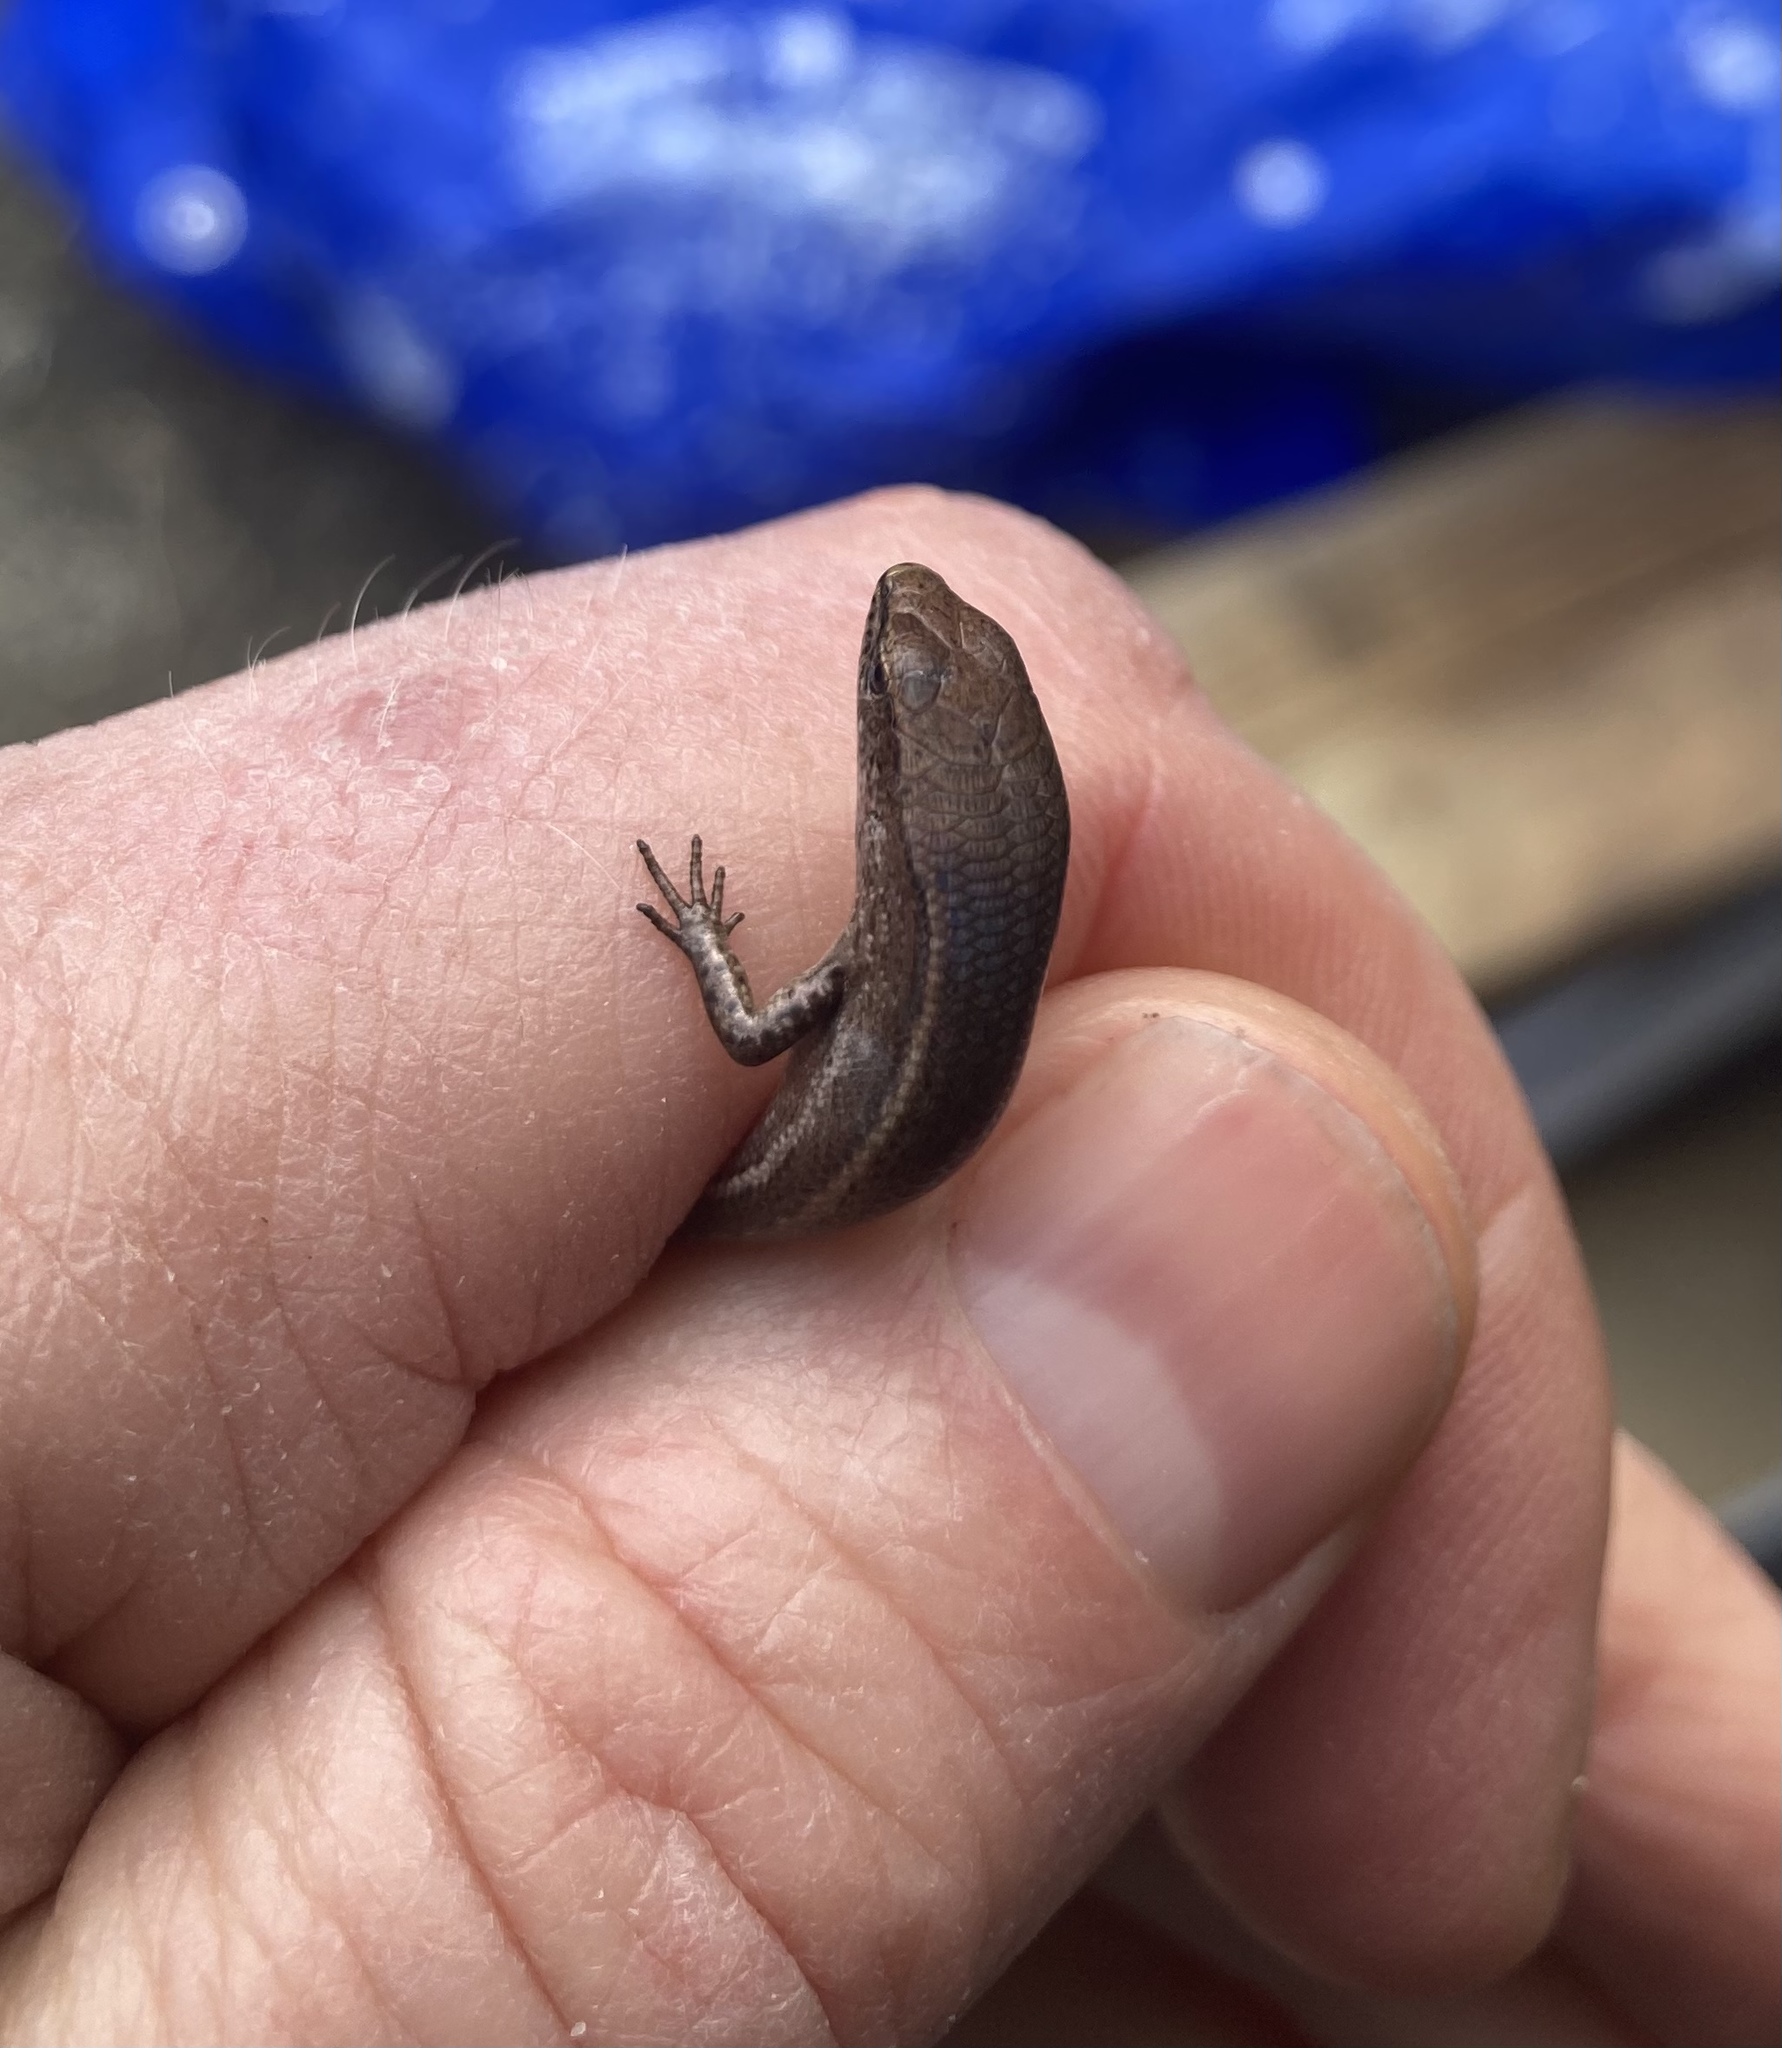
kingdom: Animalia
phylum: Chordata
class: Squamata
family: Scincidae
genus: Lampropholis
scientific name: Lampropholis delicata
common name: Plague skink
